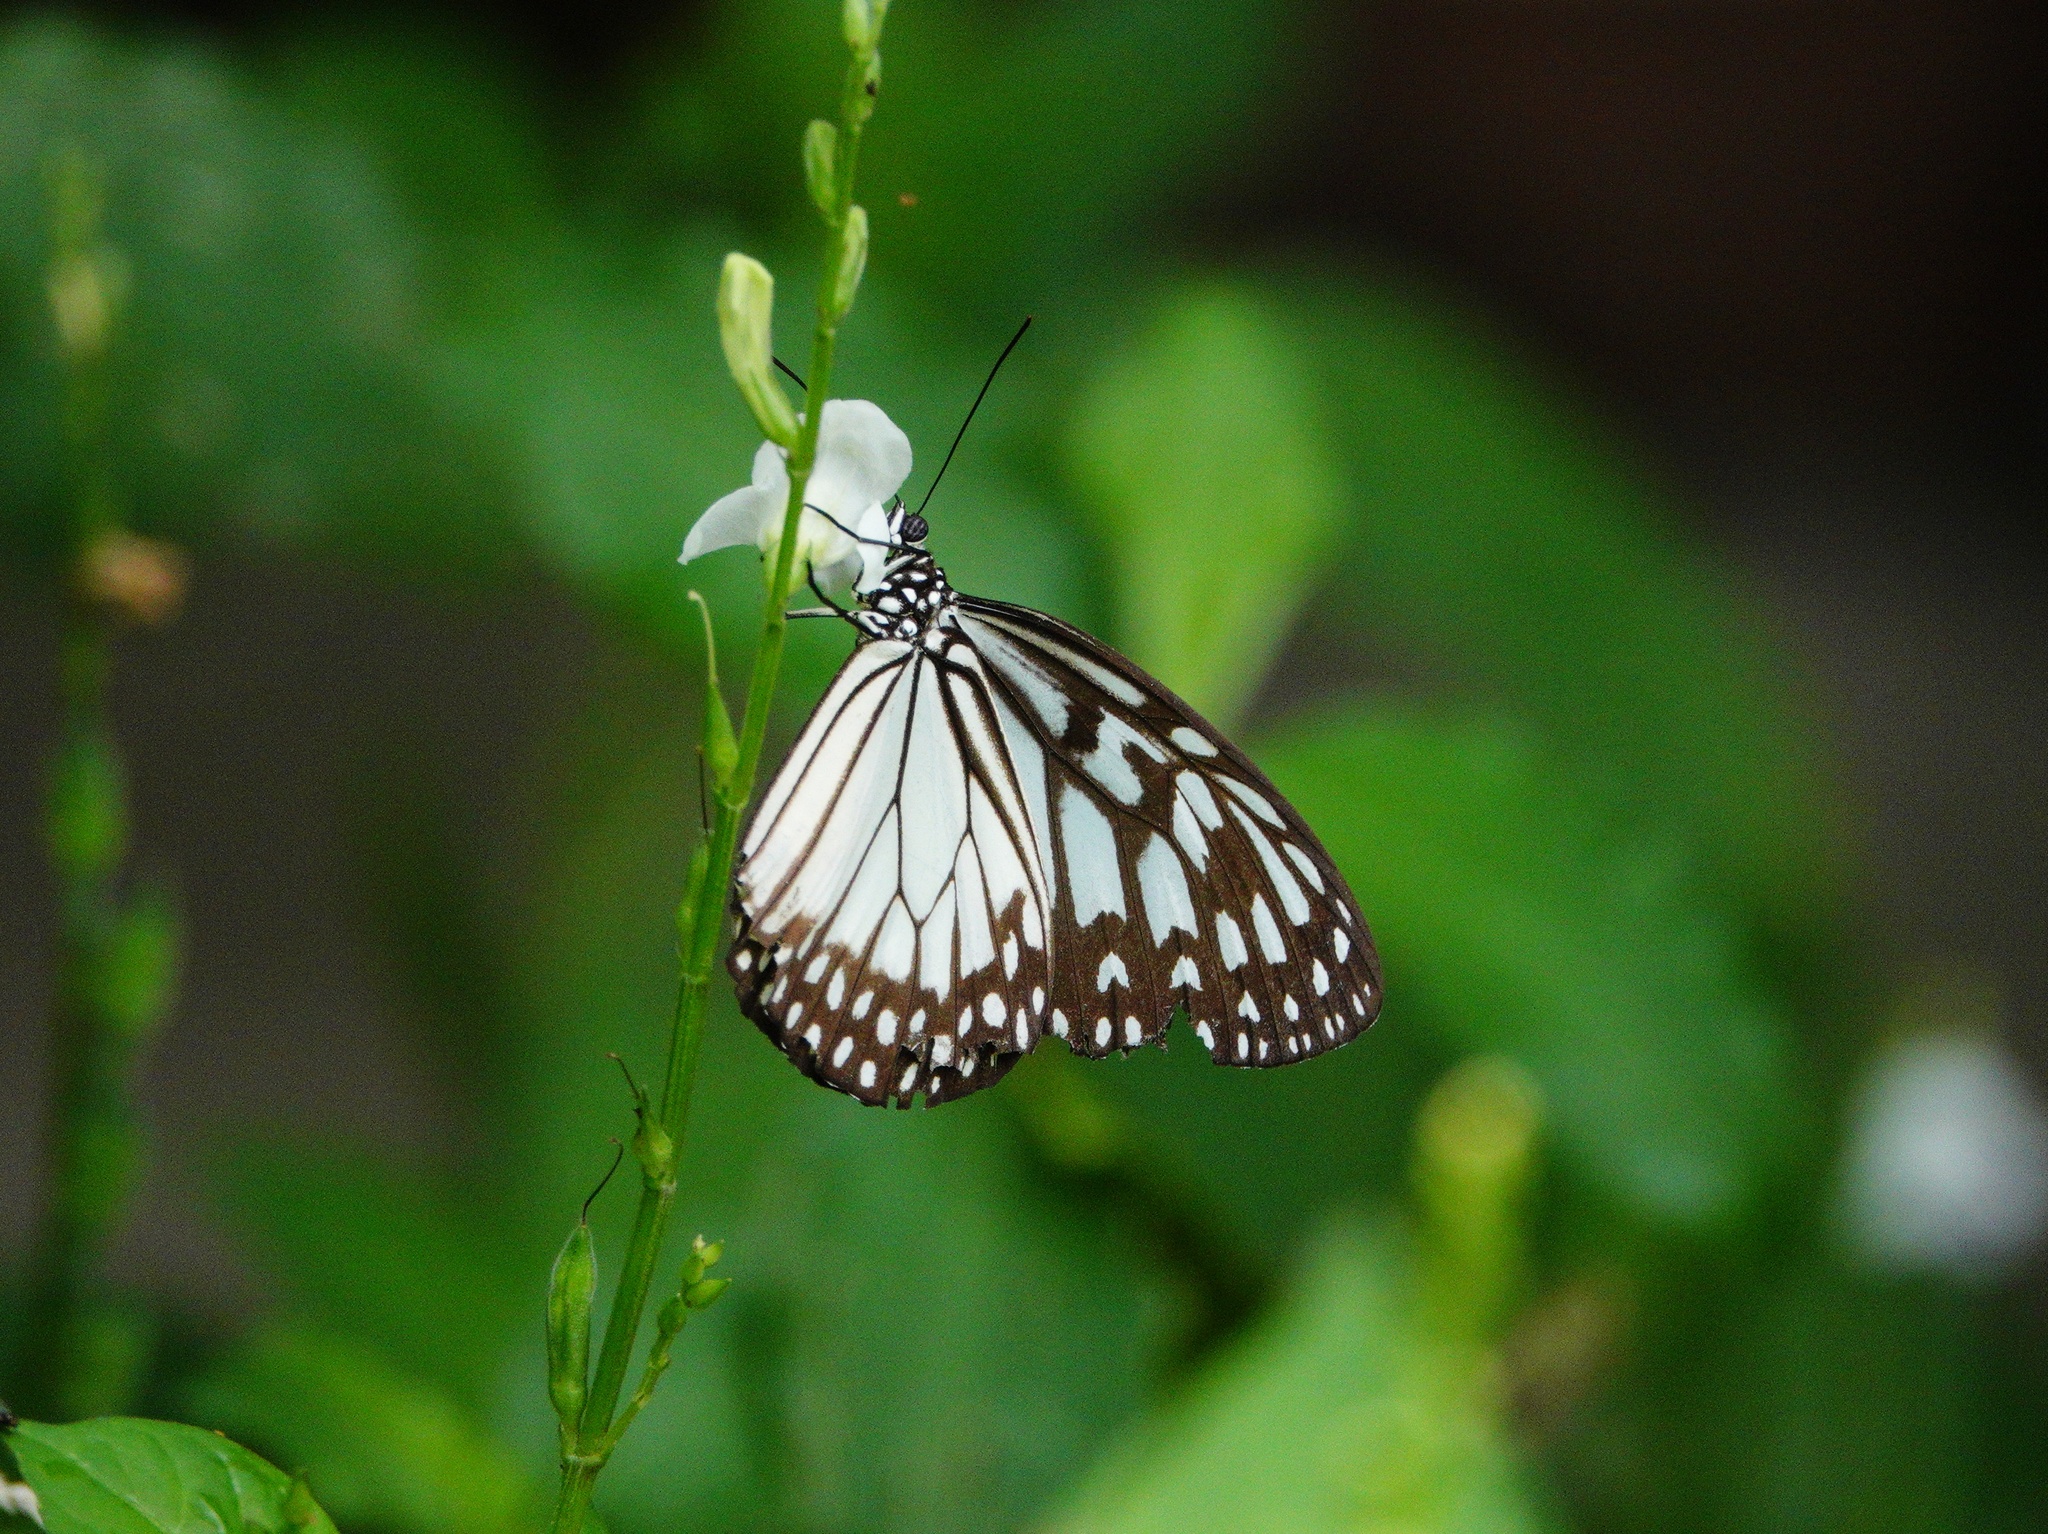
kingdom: Animalia
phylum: Arthropoda
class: Insecta
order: Lepidoptera
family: Nymphalidae
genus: Ideopsis
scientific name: Ideopsis juventa
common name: Grey glassy tiger
